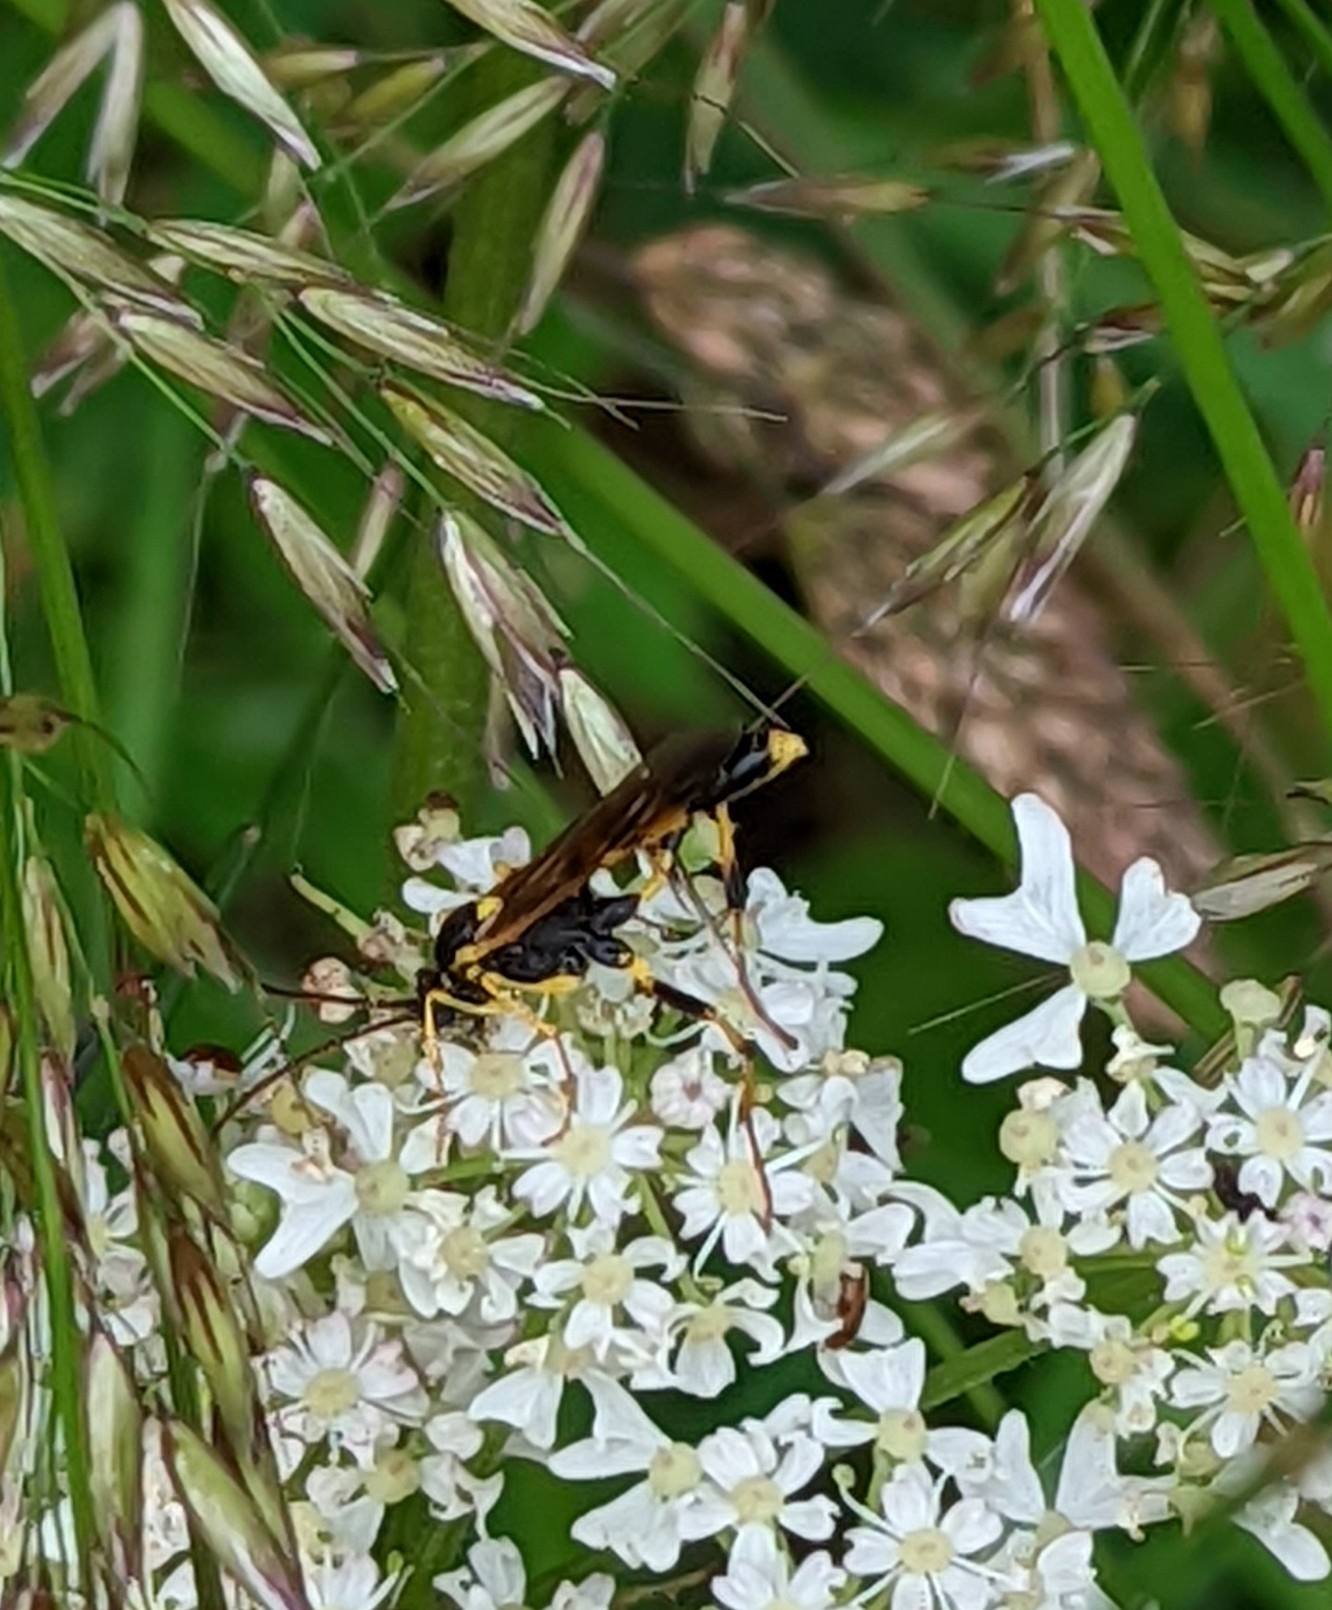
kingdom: Animalia
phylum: Arthropoda
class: Insecta
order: Hymenoptera
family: Ichneumonidae
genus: Amblyteles
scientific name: Amblyteles armatorius
